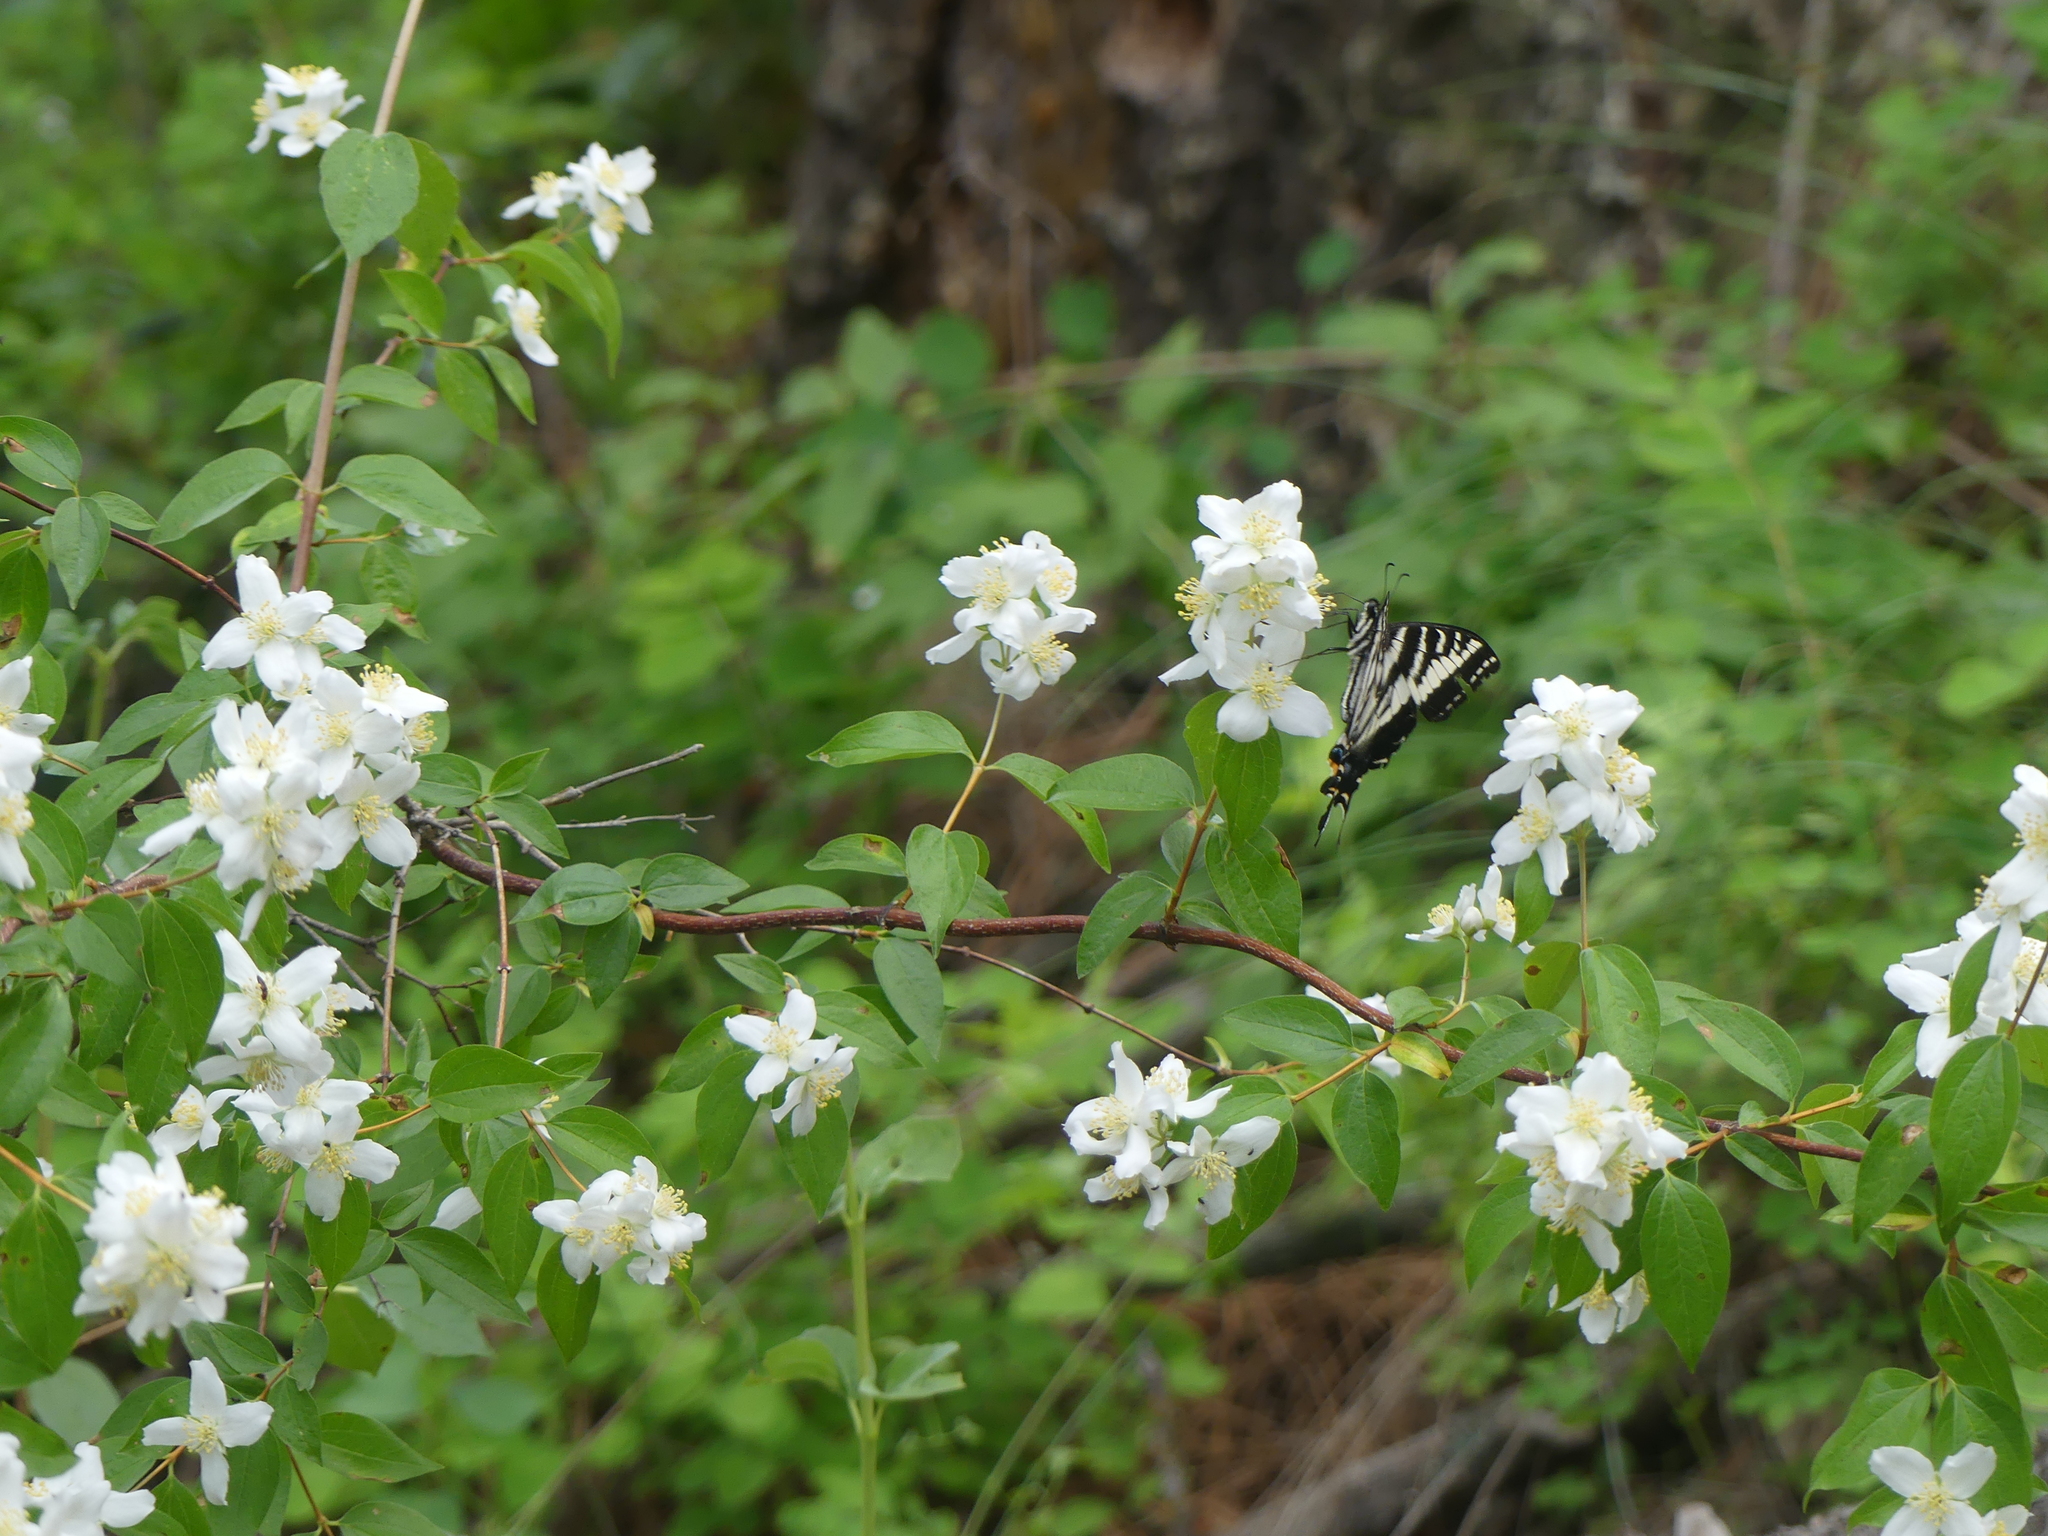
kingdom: Animalia
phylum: Arthropoda
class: Insecta
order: Lepidoptera
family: Papilionidae
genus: Papilio
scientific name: Papilio eurymedon
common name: Pale tiger swallowtail
